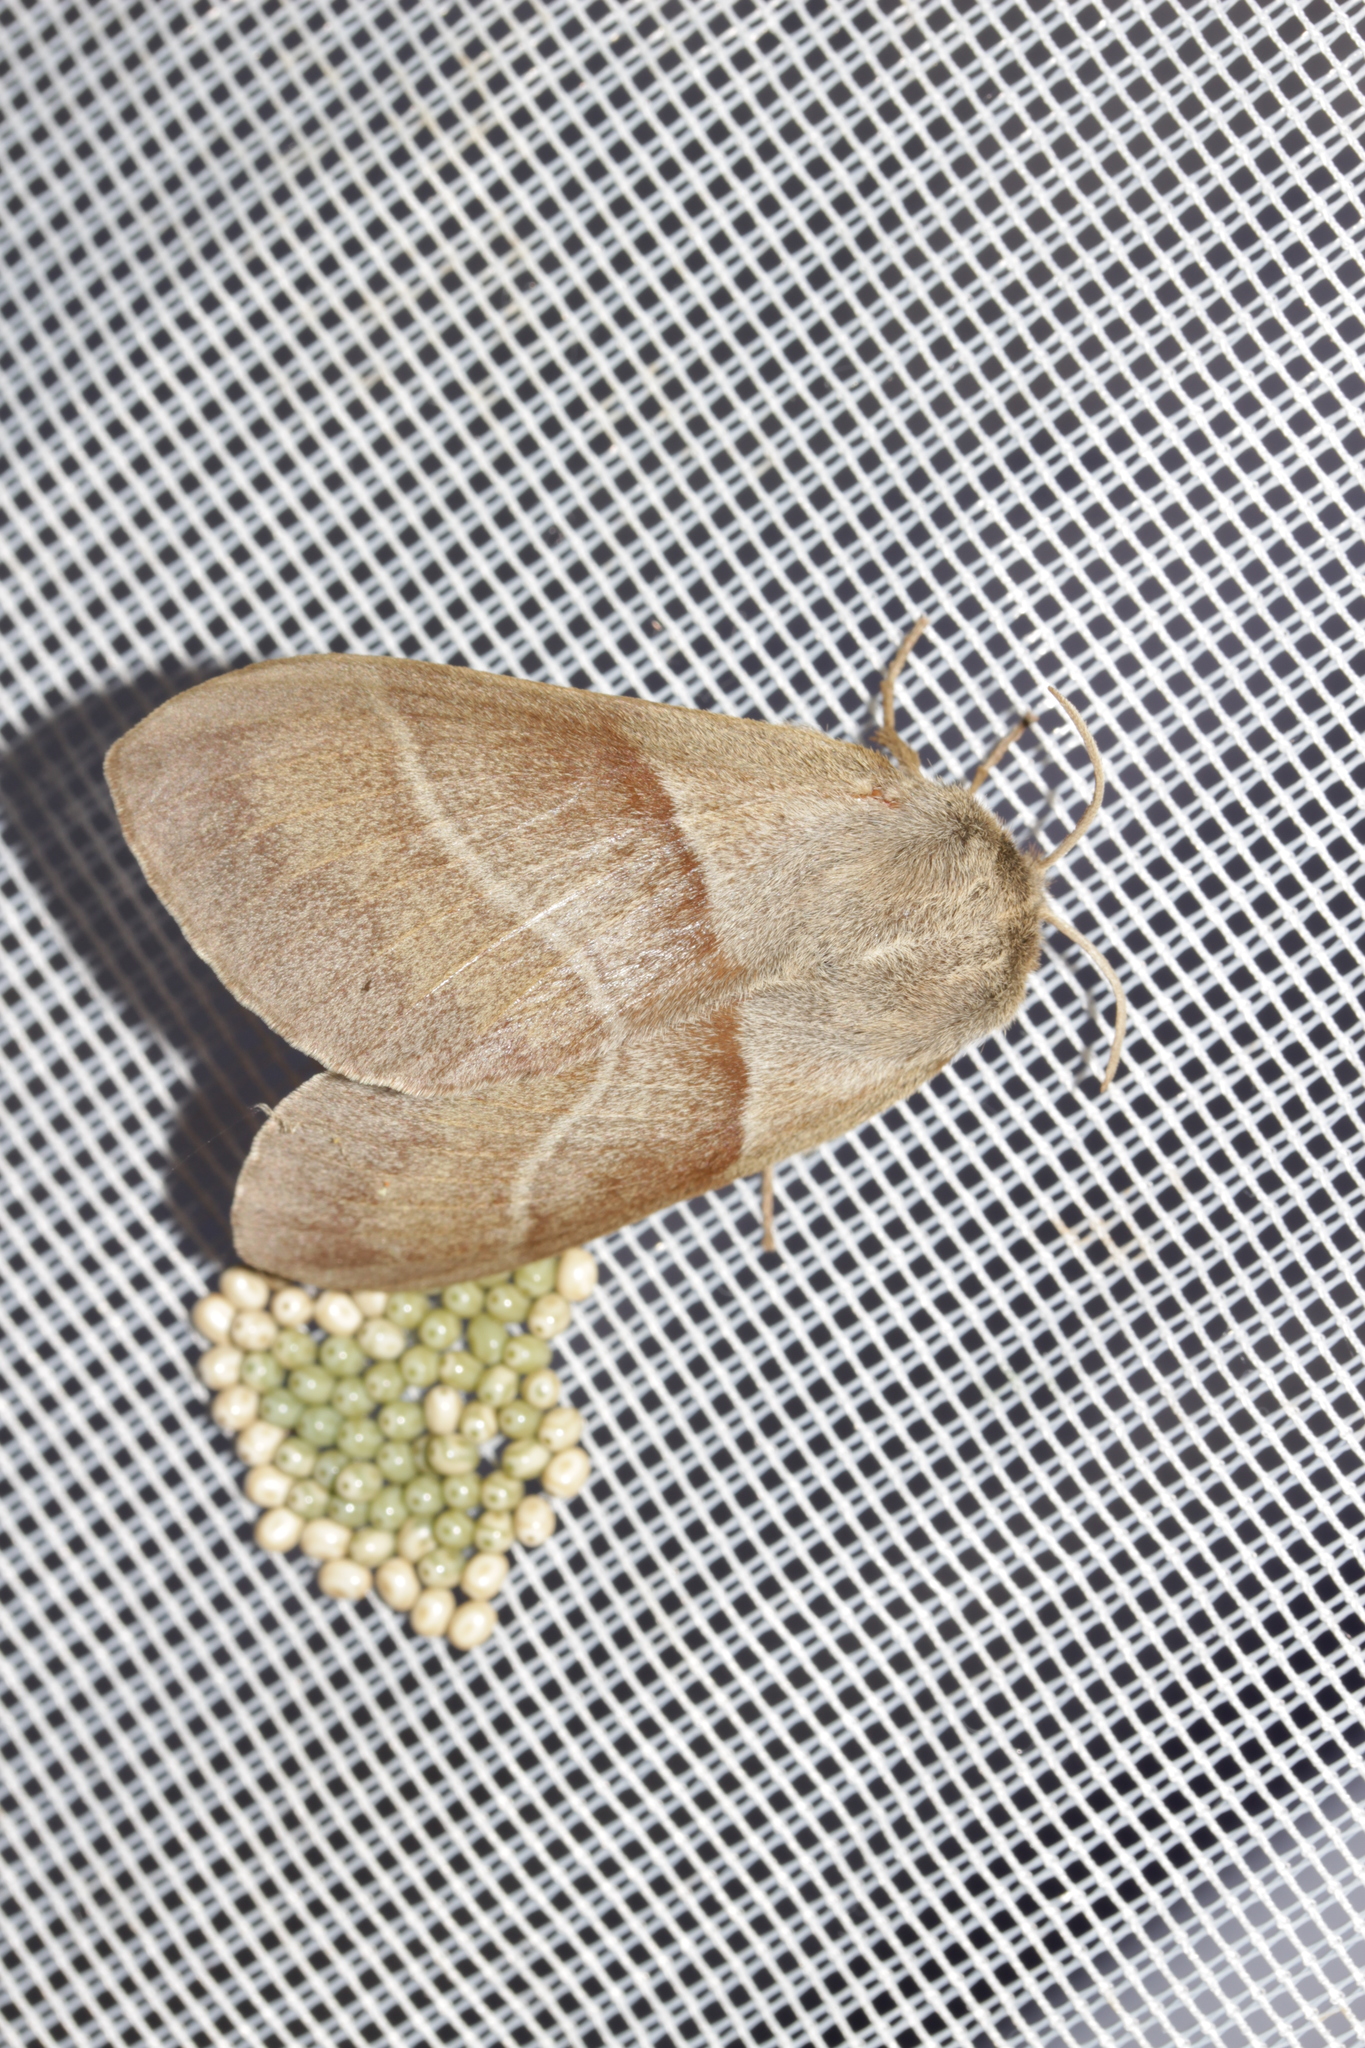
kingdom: Animalia
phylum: Arthropoda
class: Insecta
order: Lepidoptera
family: Lasiocampidae
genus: Macrothylacia
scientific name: Macrothylacia rubi
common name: Fox moth
